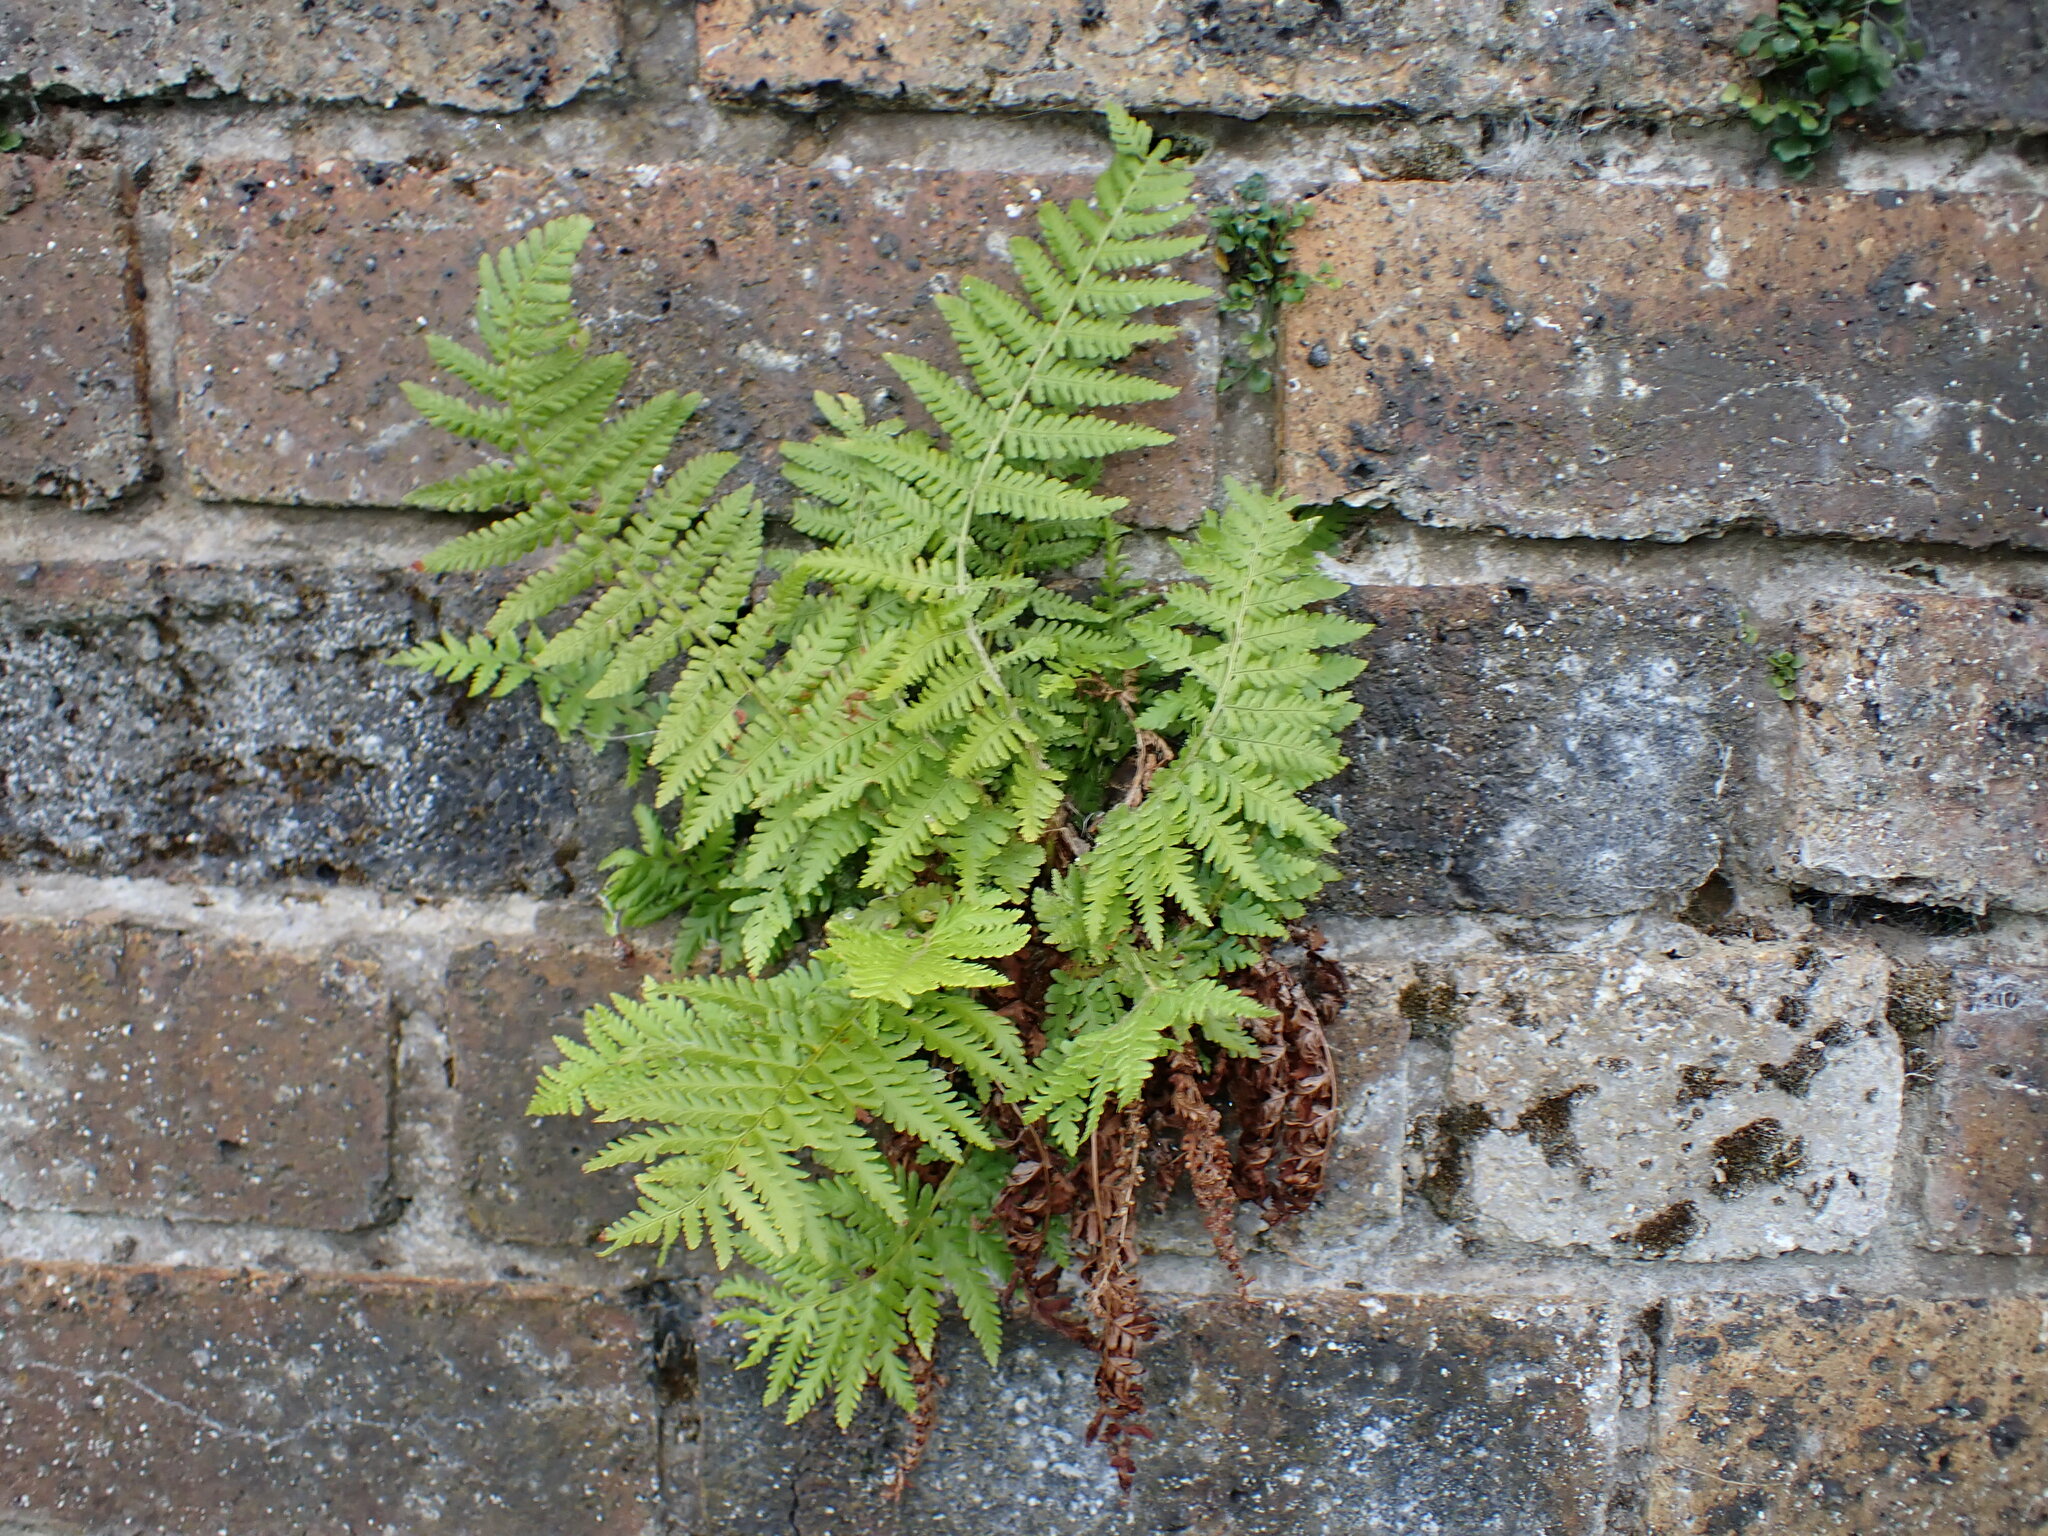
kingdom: Plantae
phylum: Tracheophyta
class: Polypodiopsida
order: Polypodiales
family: Dryopteridaceae
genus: Dryopteris
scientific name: Dryopteris filix-mas
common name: Male fern
